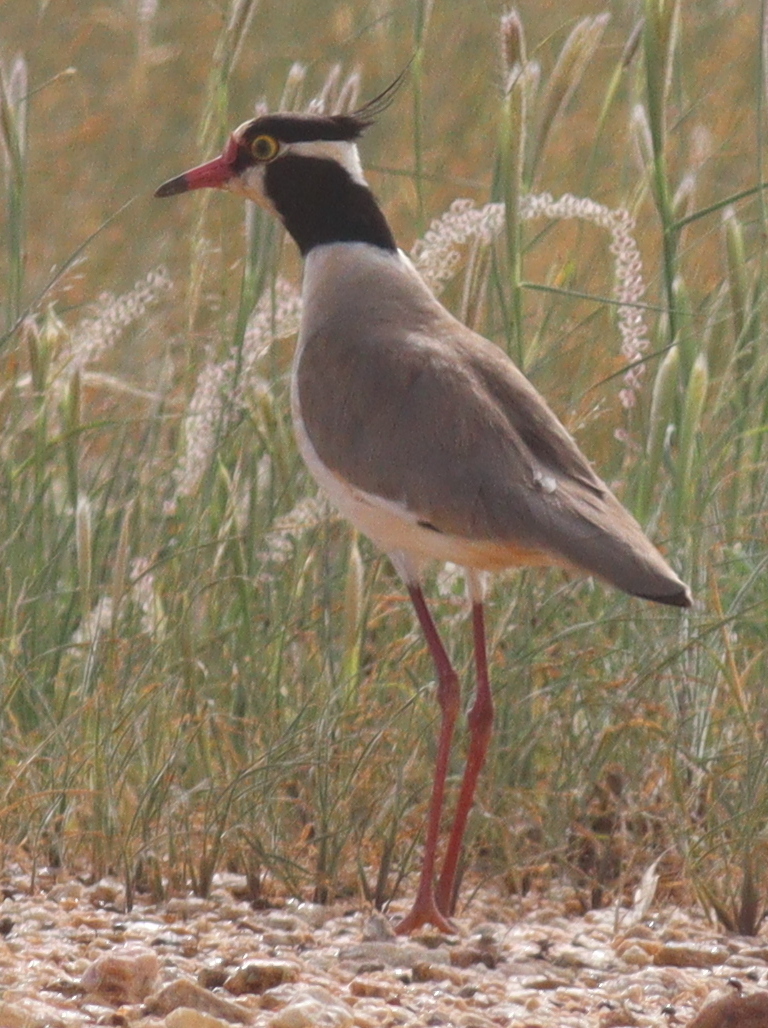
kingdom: Animalia
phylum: Chordata
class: Aves
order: Charadriiformes
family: Charadriidae
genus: Vanellus
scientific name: Vanellus tectus
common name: Black-headed lapwing
